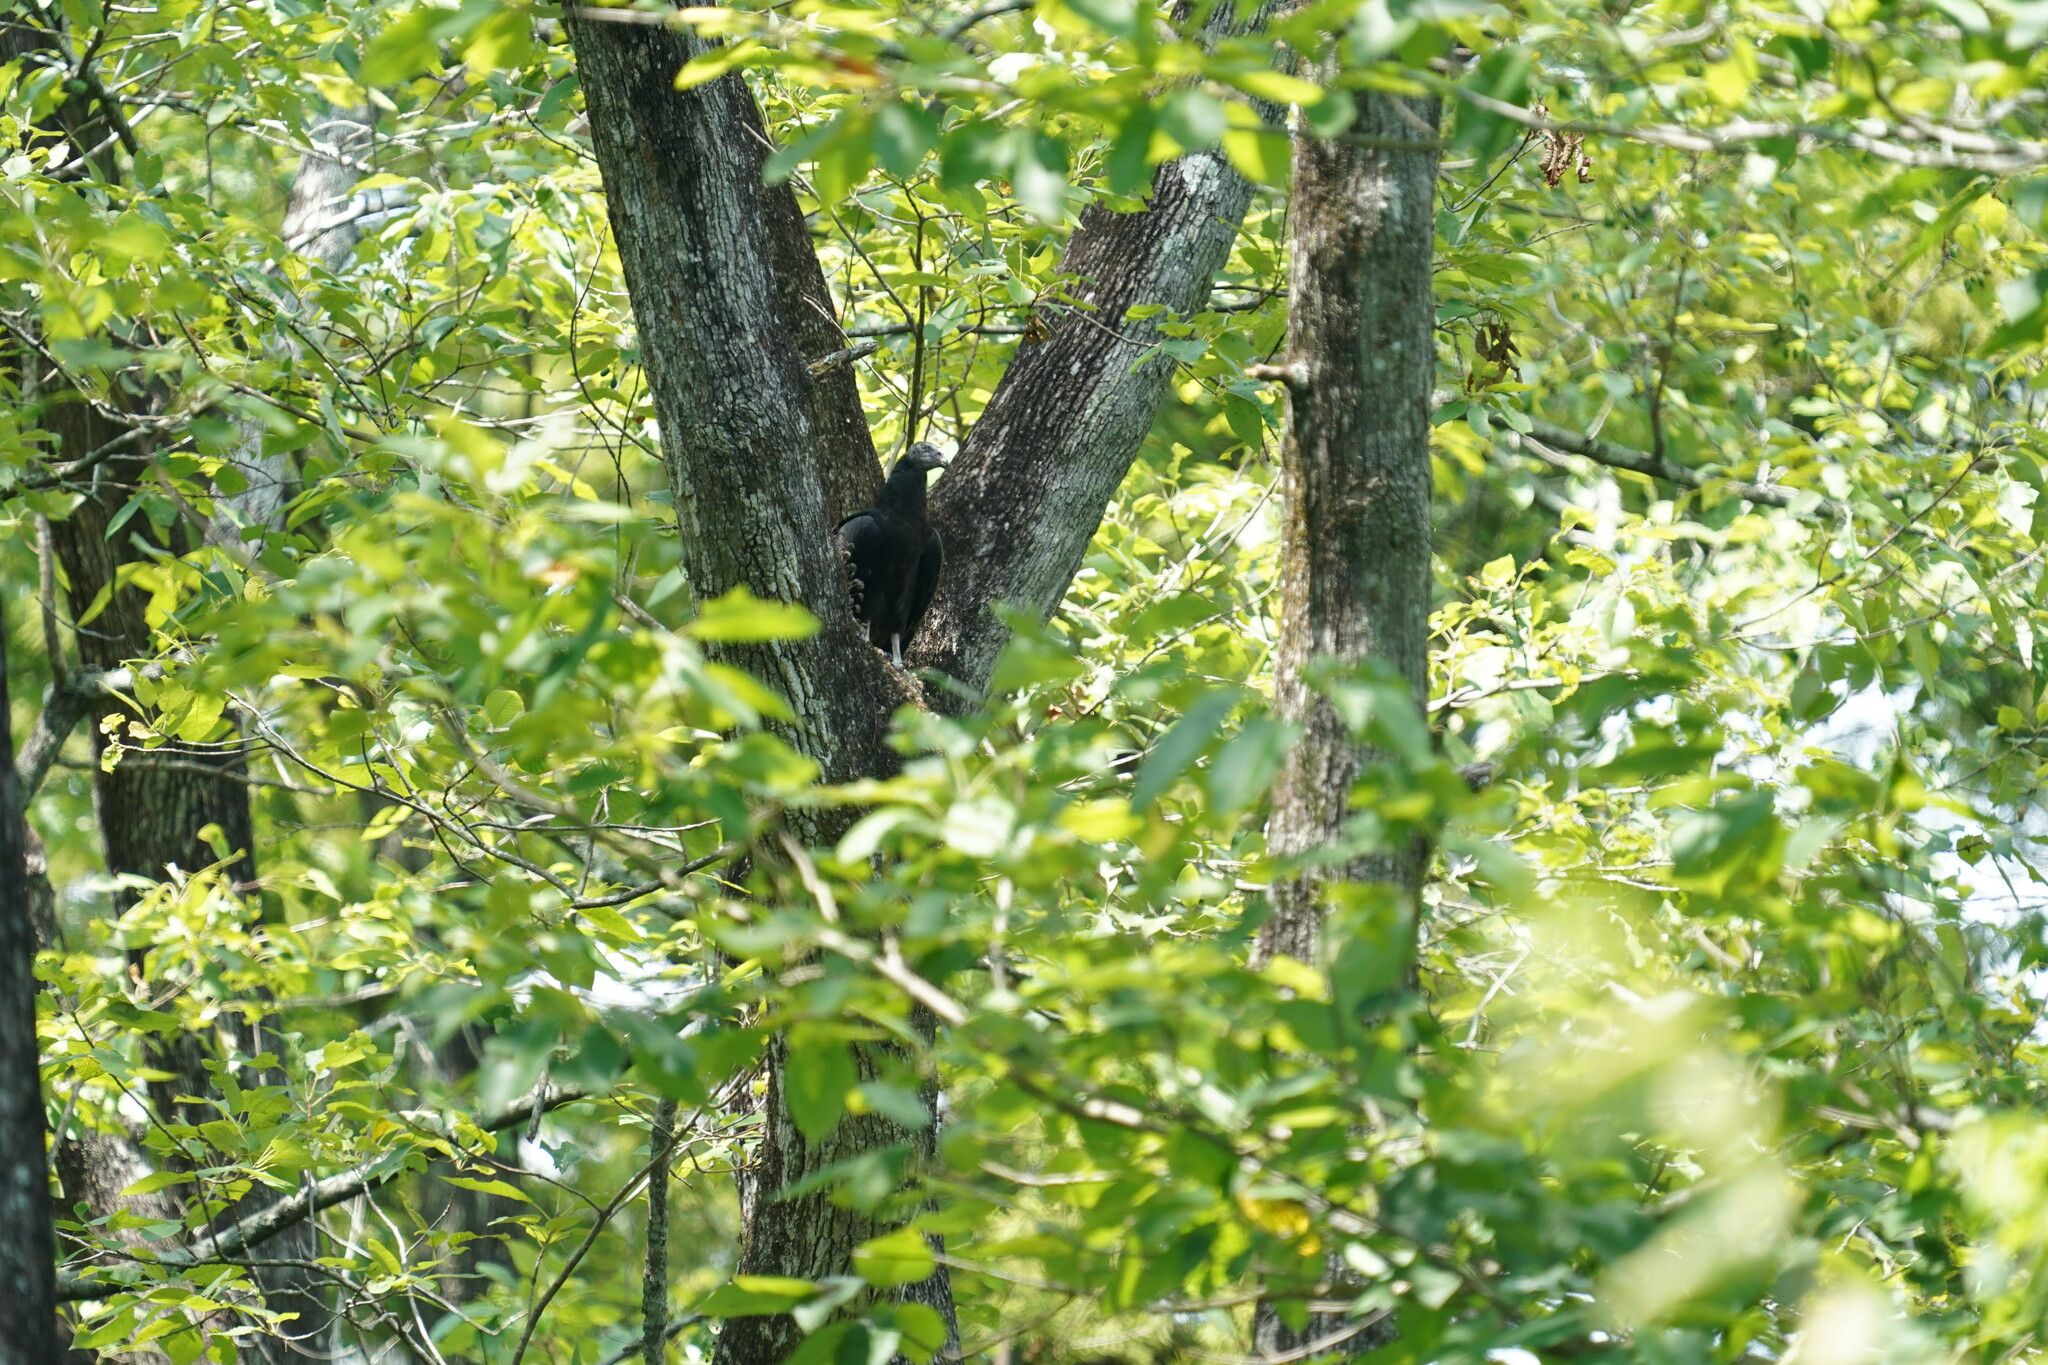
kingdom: Animalia
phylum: Chordata
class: Aves
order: Accipitriformes
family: Cathartidae
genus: Coragyps
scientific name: Coragyps atratus
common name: Black vulture
